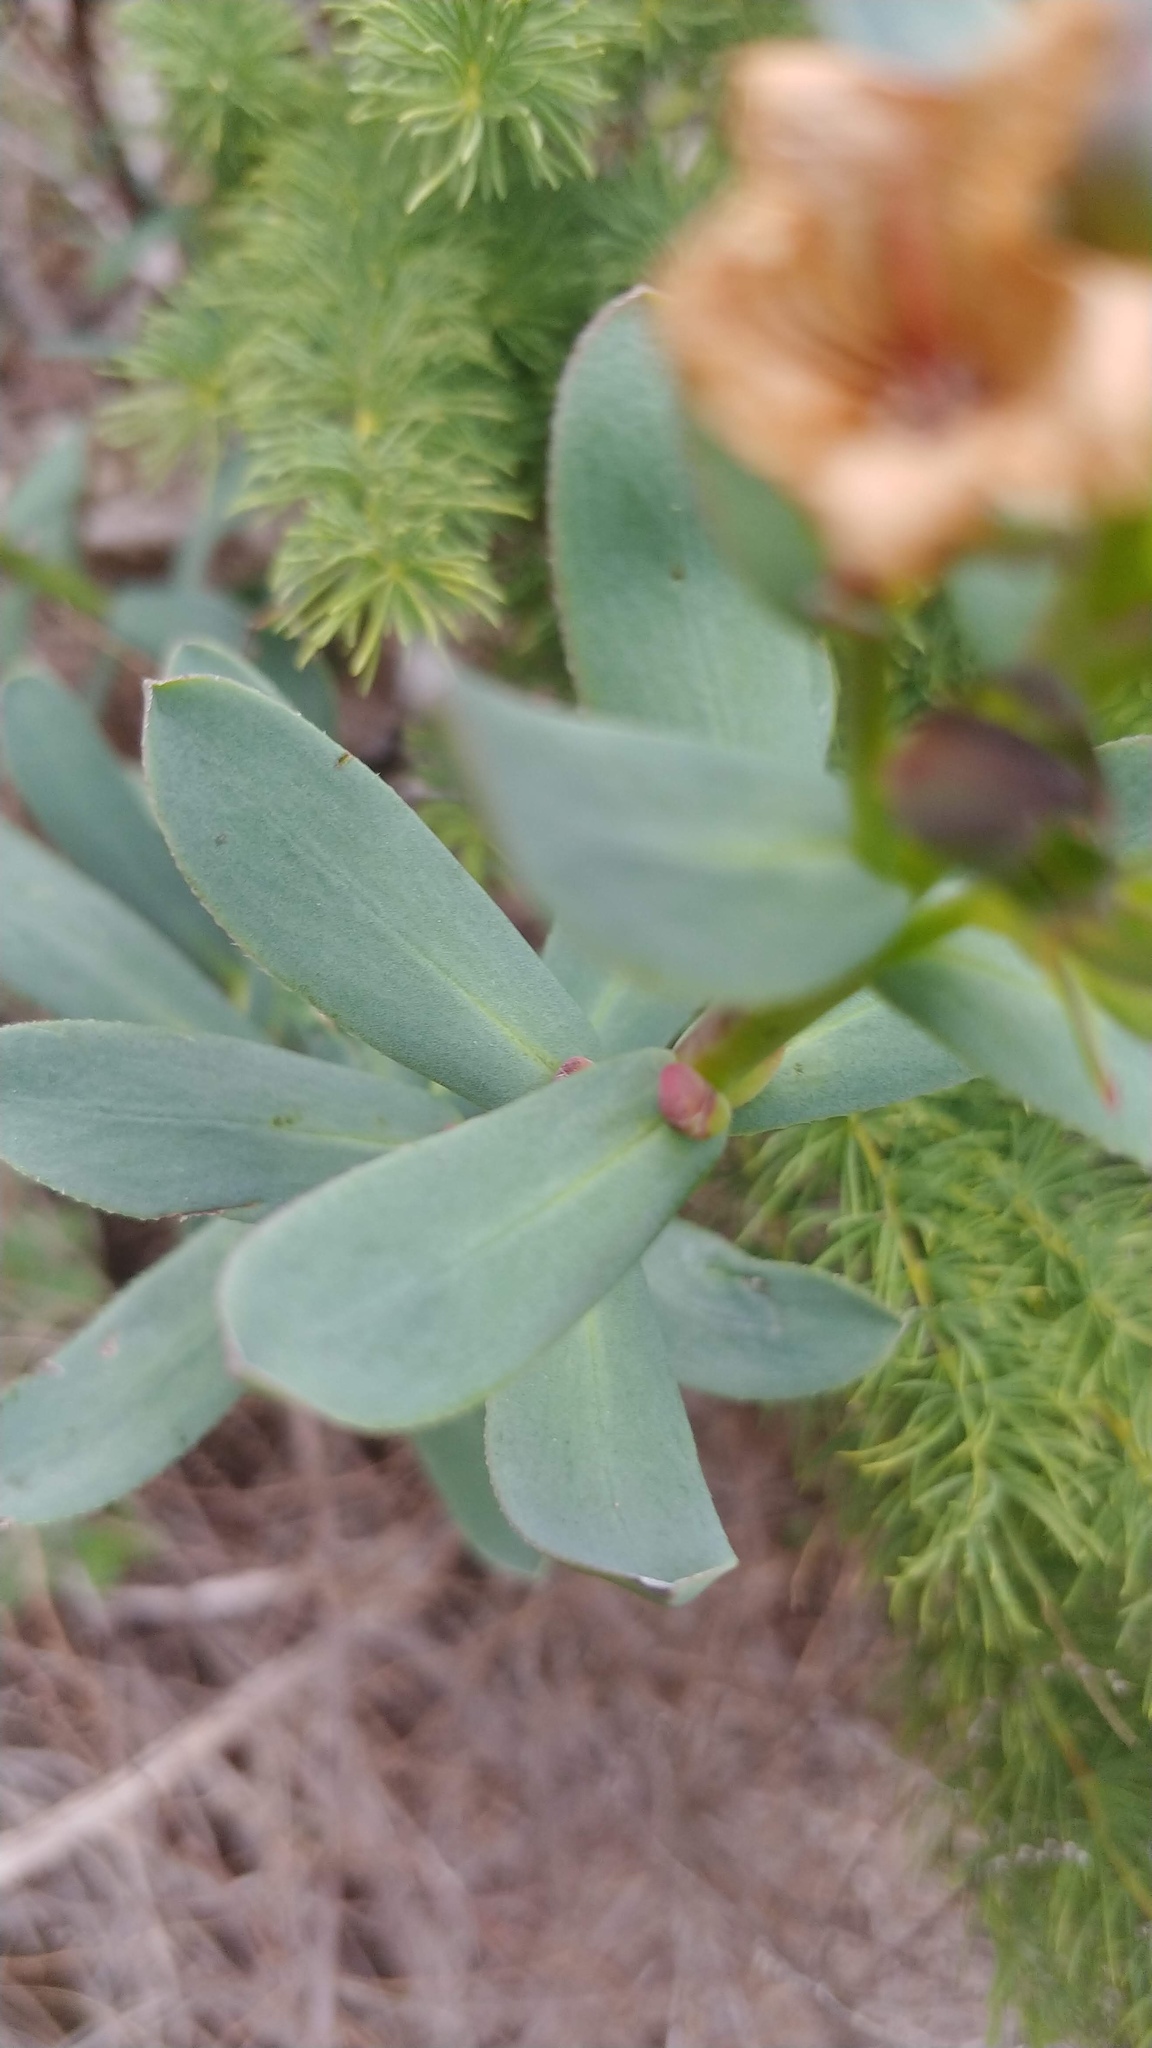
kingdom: Plantae
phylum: Tracheophyta
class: Magnoliopsida
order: Boraginales
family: Boraginaceae
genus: Lobostemon
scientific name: Lobostemon glaucophyllus
